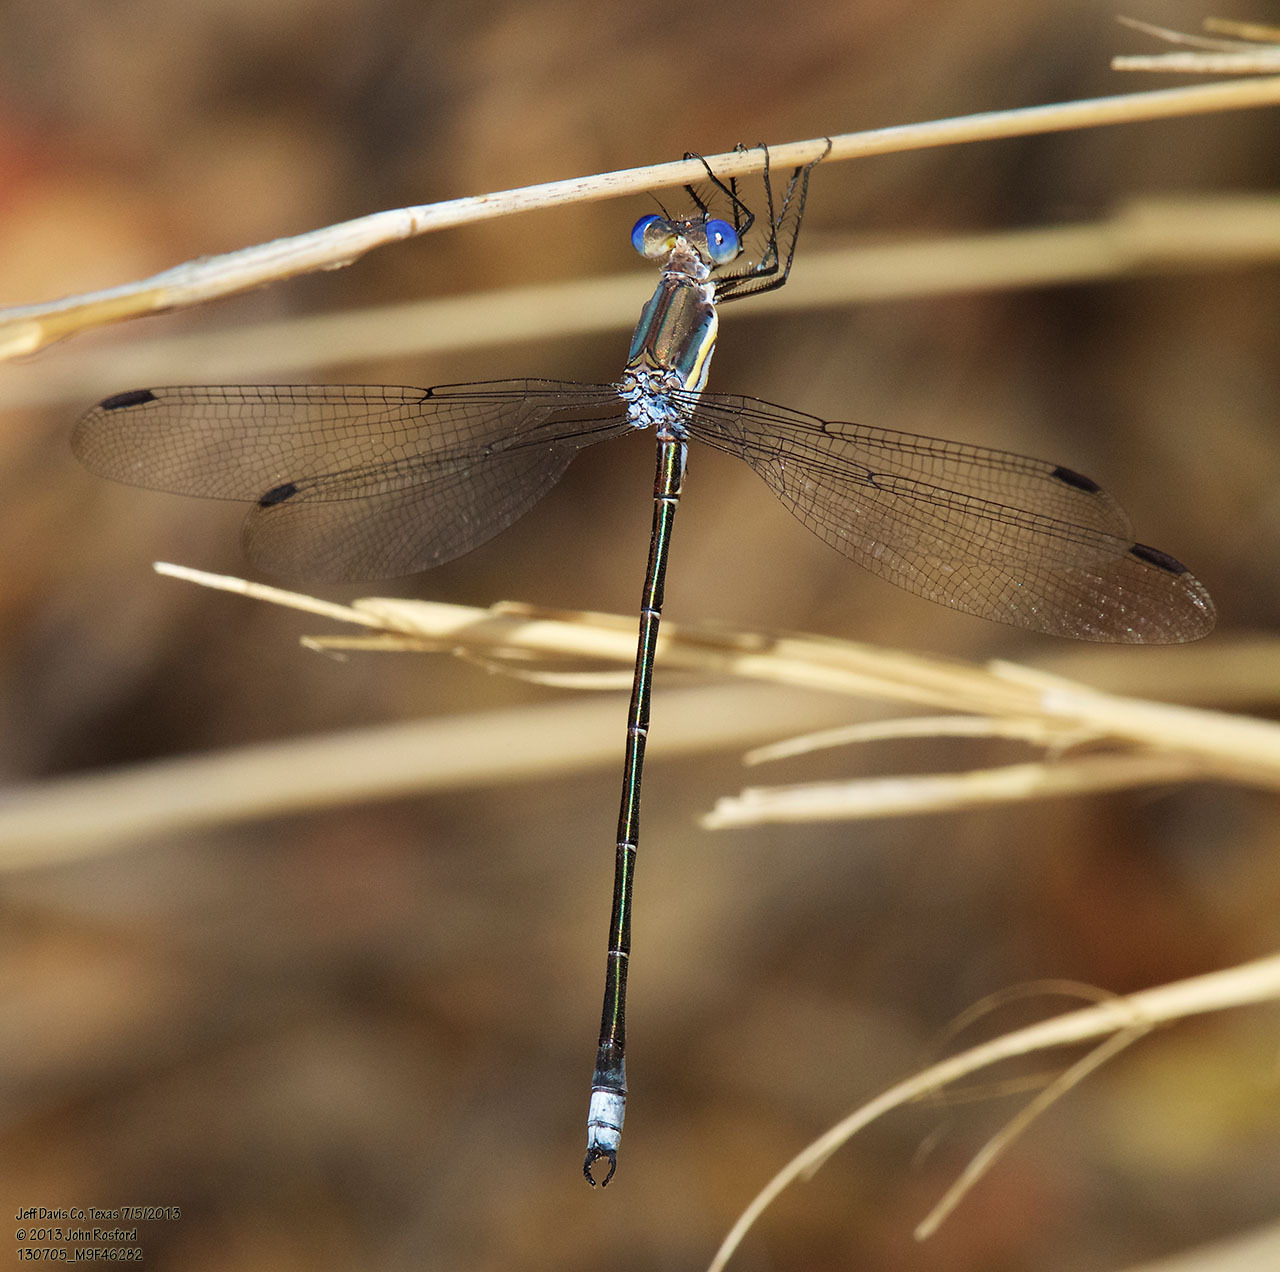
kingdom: Animalia
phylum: Arthropoda
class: Insecta
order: Odonata
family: Lestidae
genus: Archilestes
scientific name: Archilestes grandis
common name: Great spreadwing
